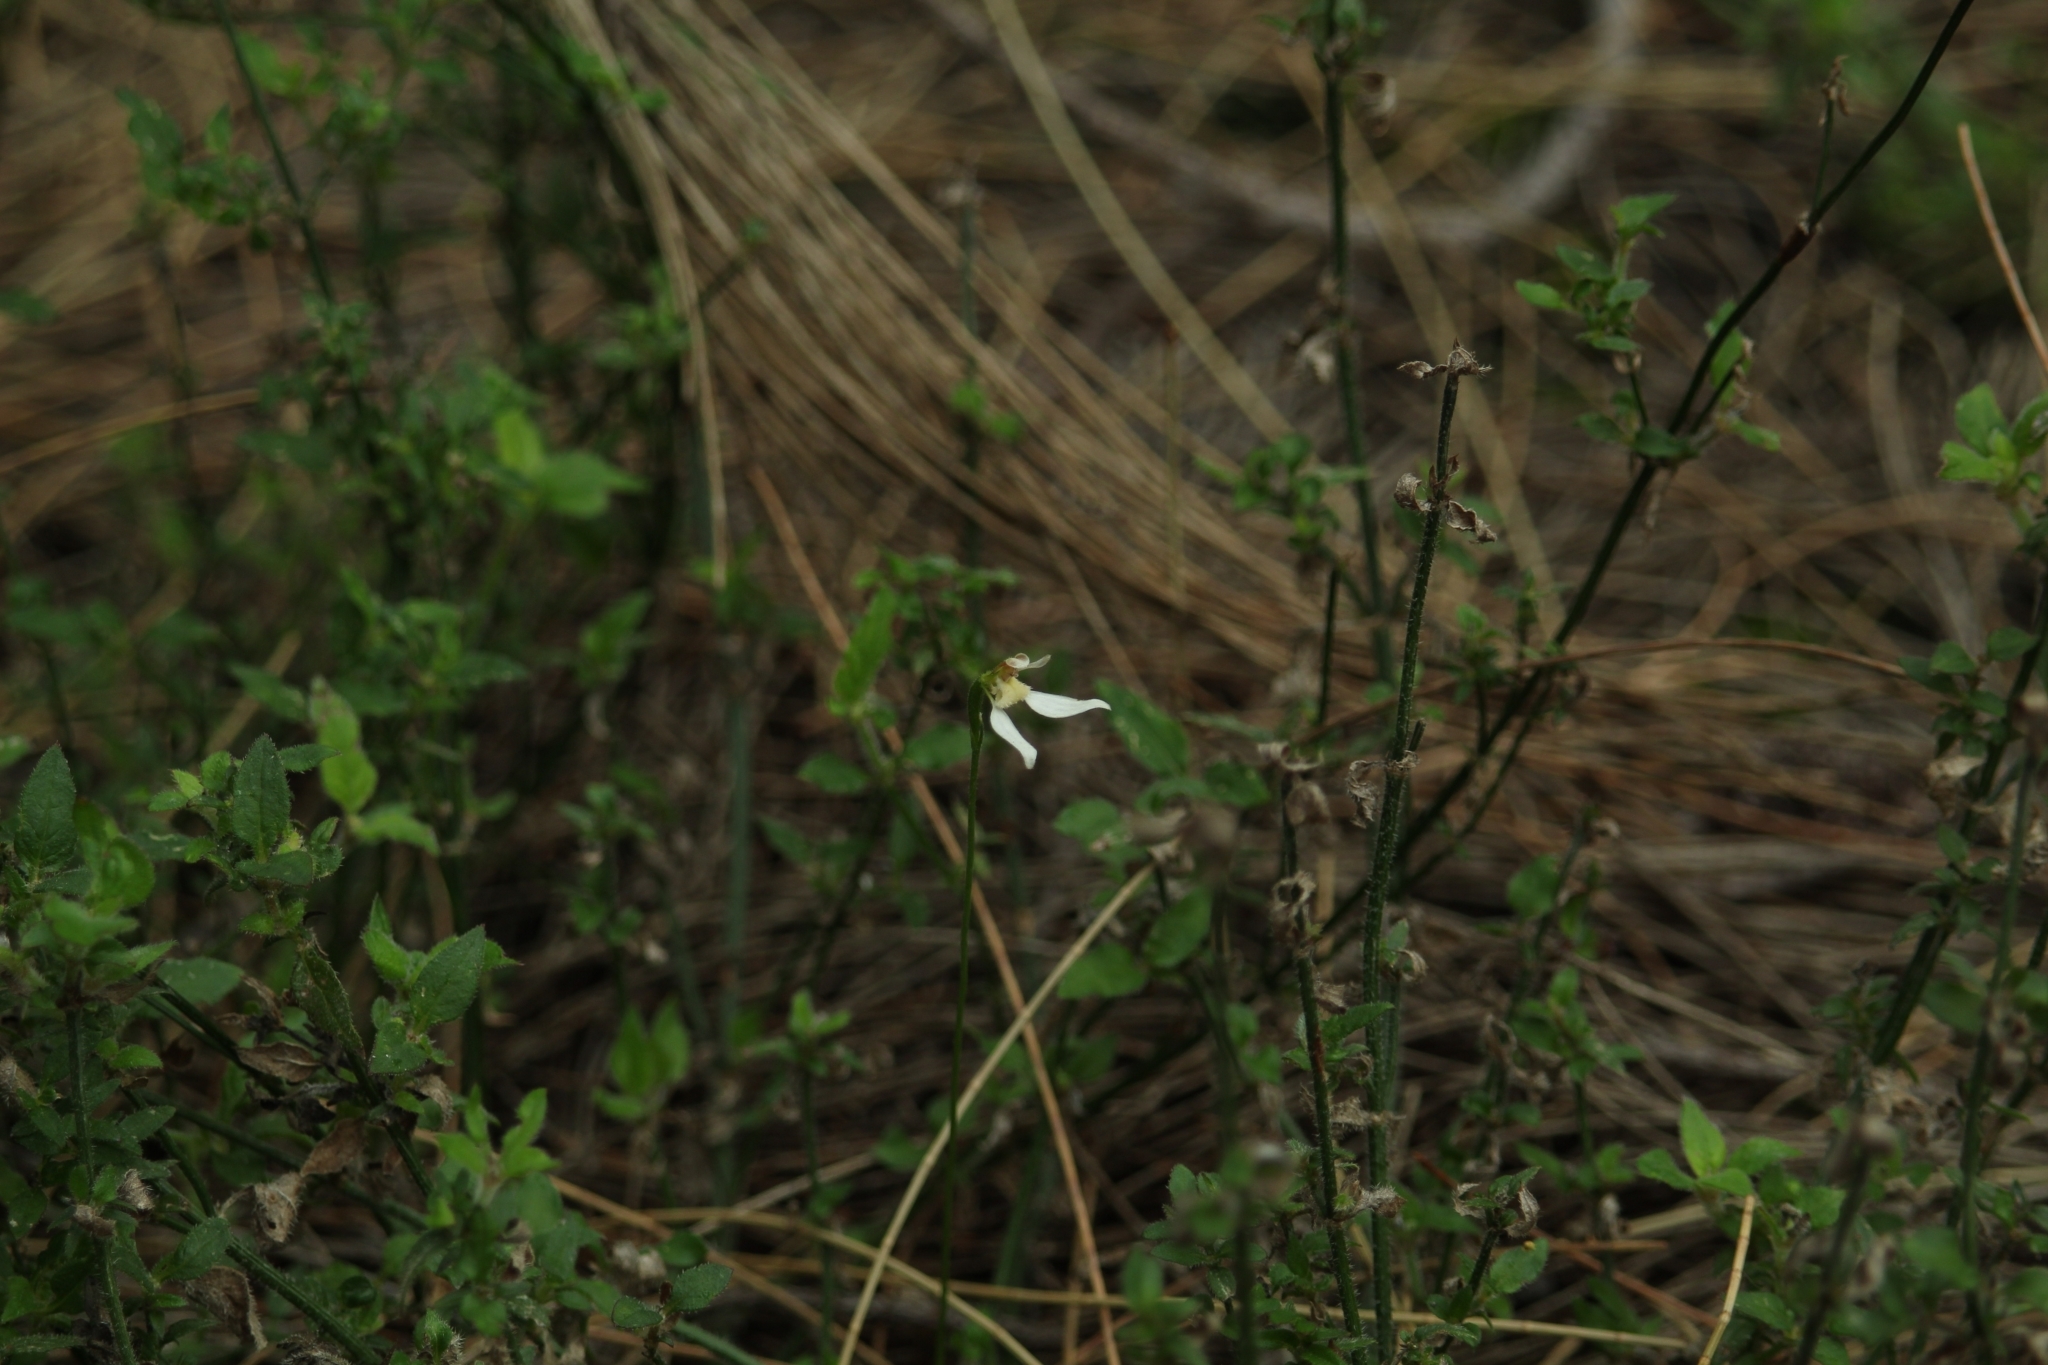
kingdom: Plantae
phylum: Tracheophyta
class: Liliopsida
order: Asparagales
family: Orchidaceae
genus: Eriochilus
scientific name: Eriochilus dilatatus
